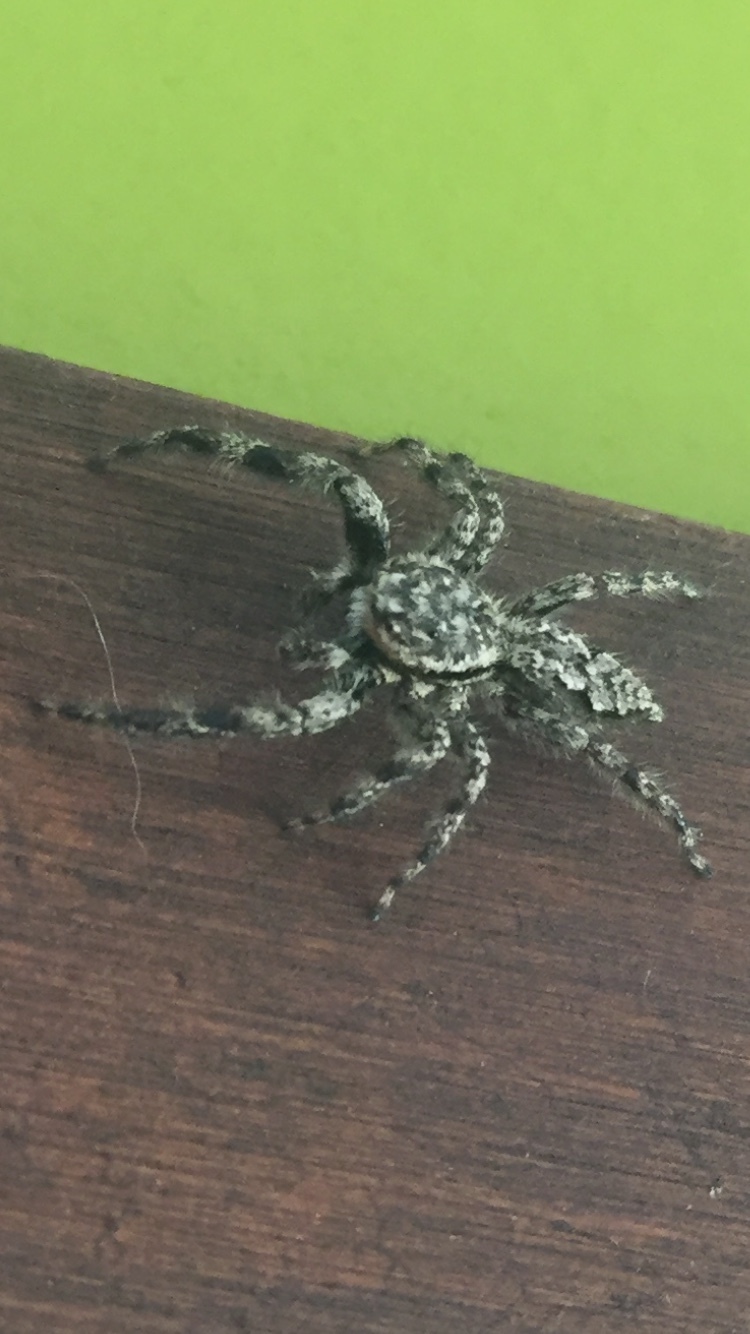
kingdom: Animalia
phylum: Arthropoda
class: Arachnida
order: Araneae
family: Salticidae
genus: Platycryptus
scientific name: Platycryptus undatus
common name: Tan jumping spider
